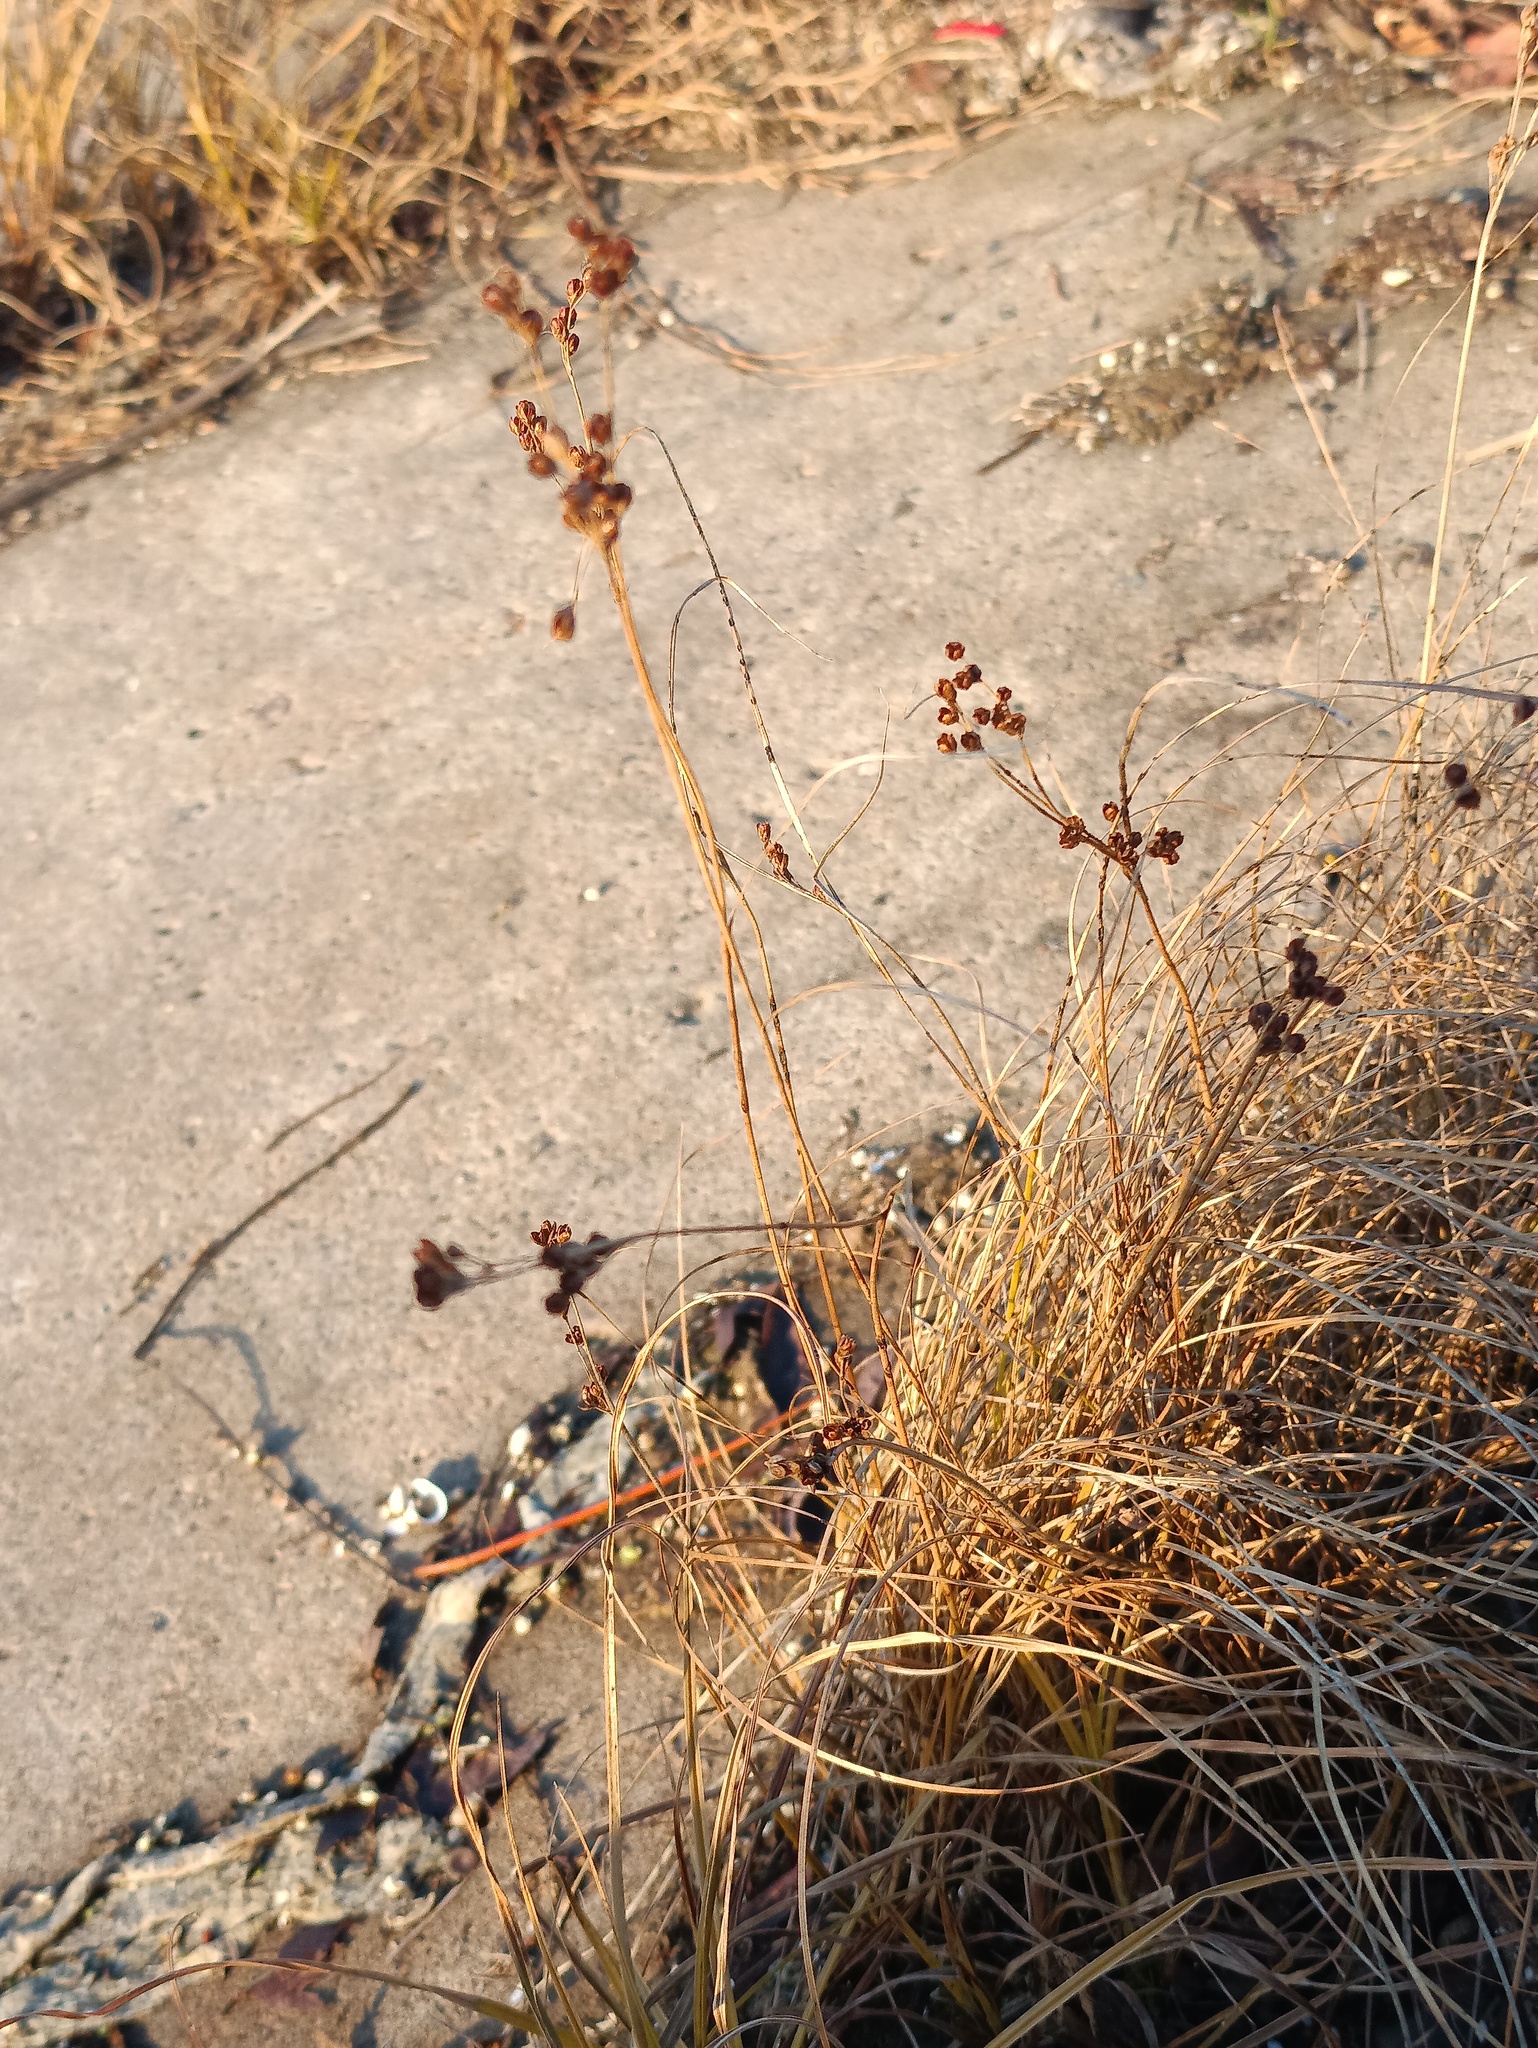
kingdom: Plantae
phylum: Tracheophyta
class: Liliopsida
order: Poales
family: Juncaceae
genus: Juncus
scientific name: Juncus compressus
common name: Round-fruited rush
